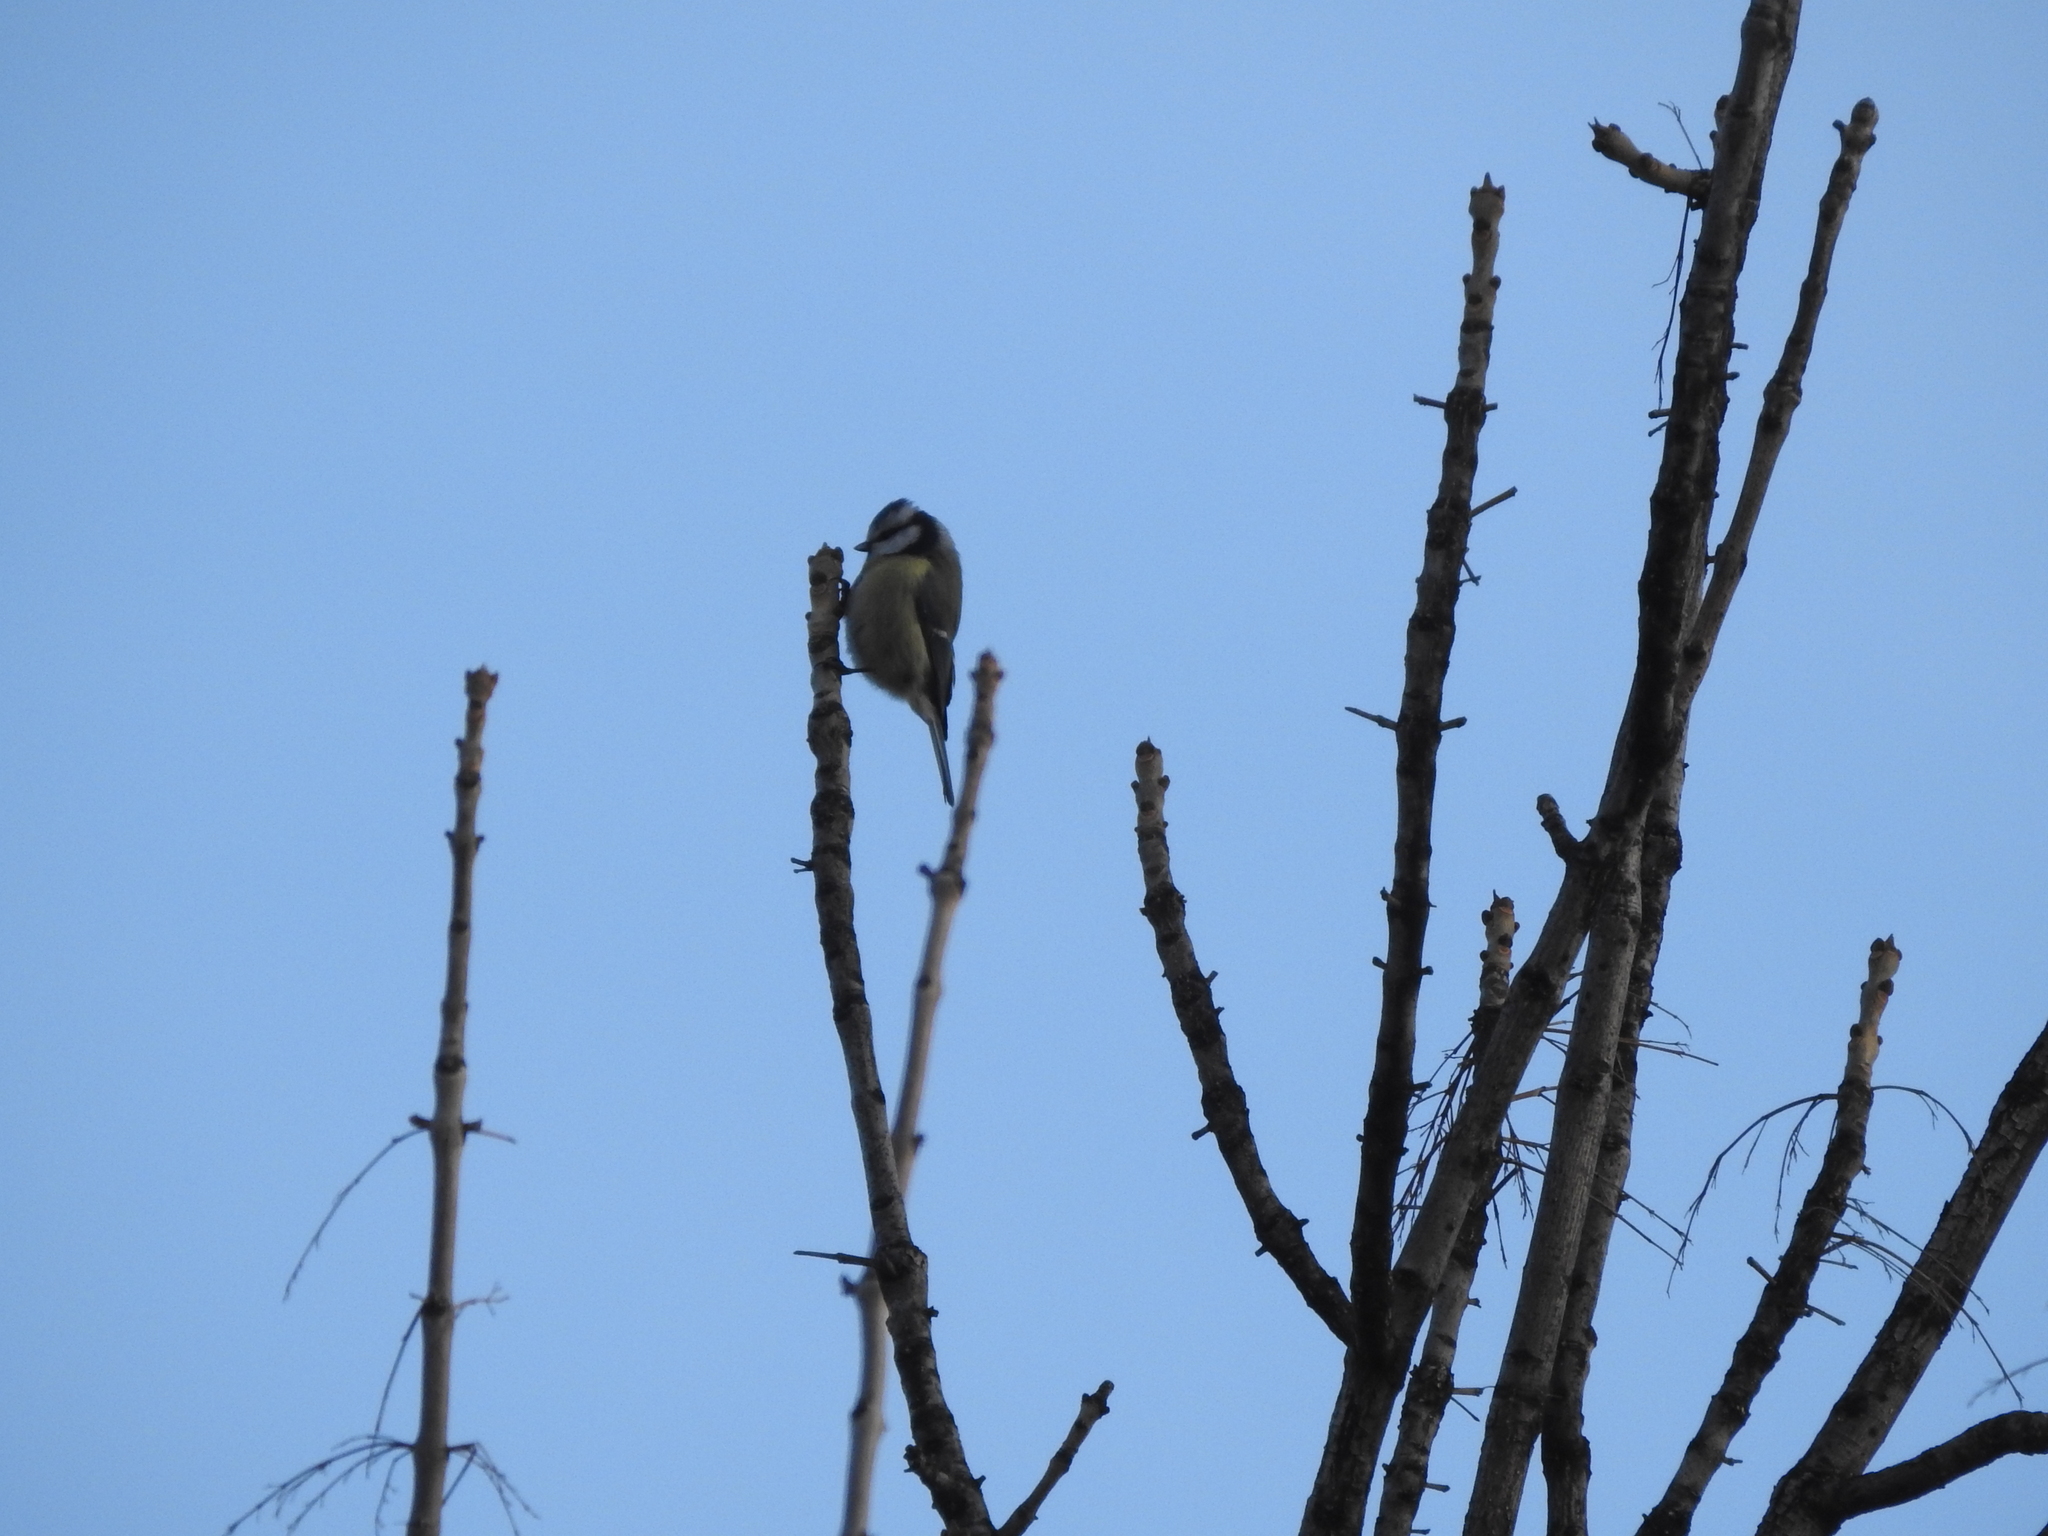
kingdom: Animalia
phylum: Chordata
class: Aves
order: Passeriformes
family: Paridae
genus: Cyanistes
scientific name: Cyanistes caeruleus
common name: Eurasian blue tit
